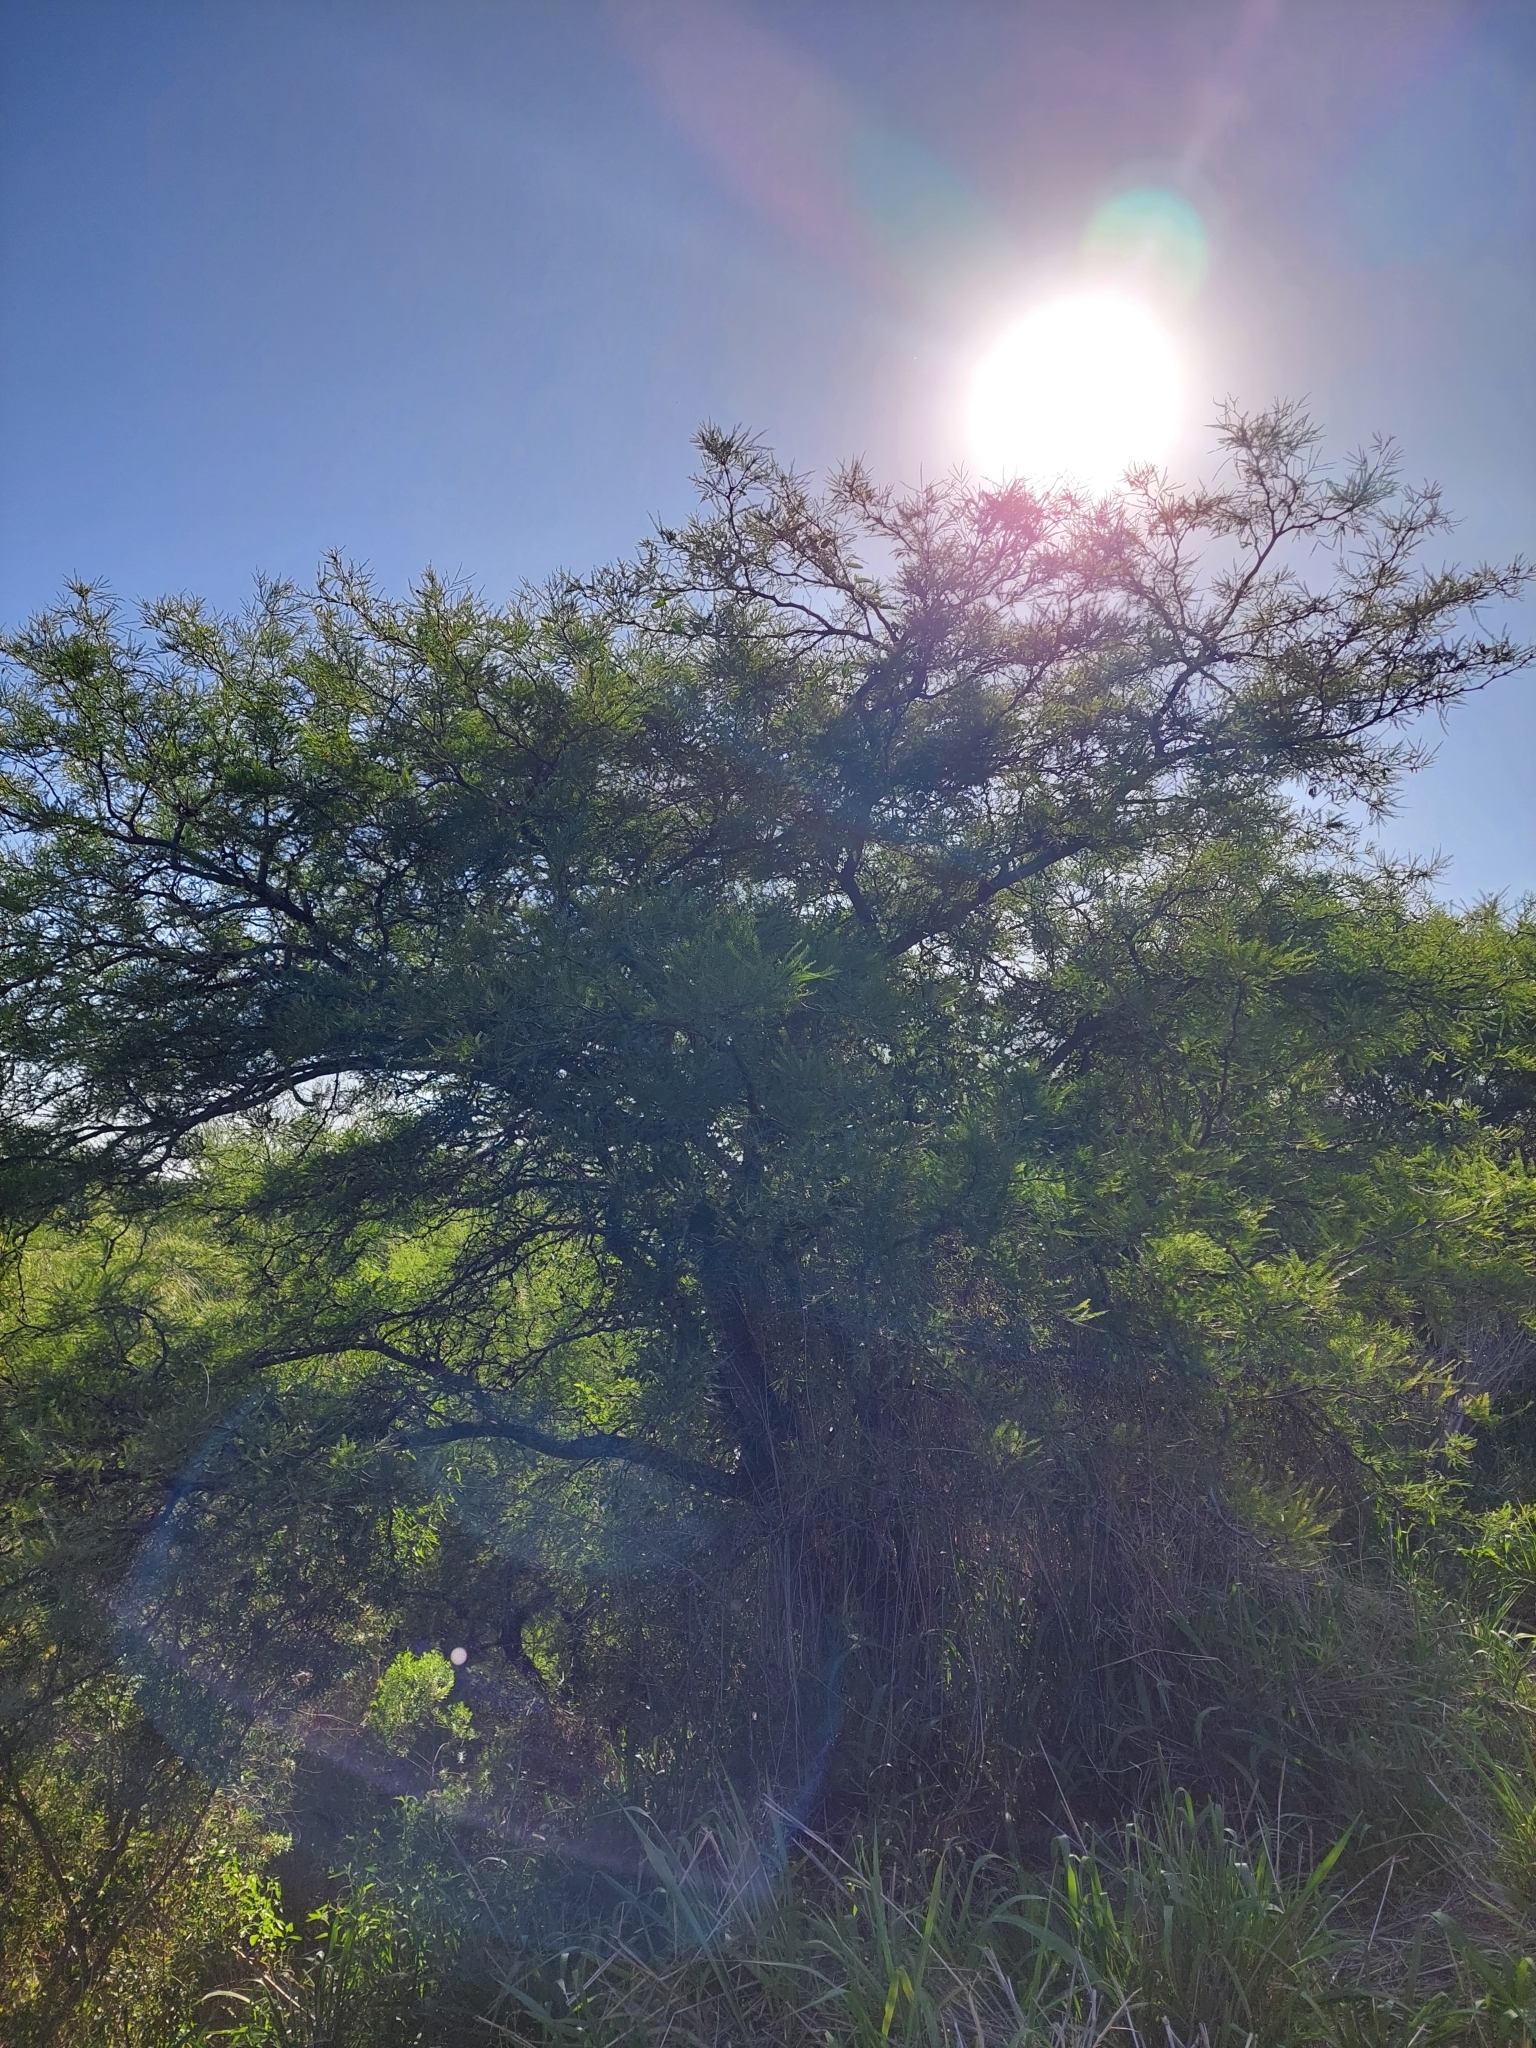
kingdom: Plantae
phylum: Tracheophyta
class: Magnoliopsida
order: Fabales
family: Fabaceae
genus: Prosopis
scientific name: Prosopis alba
